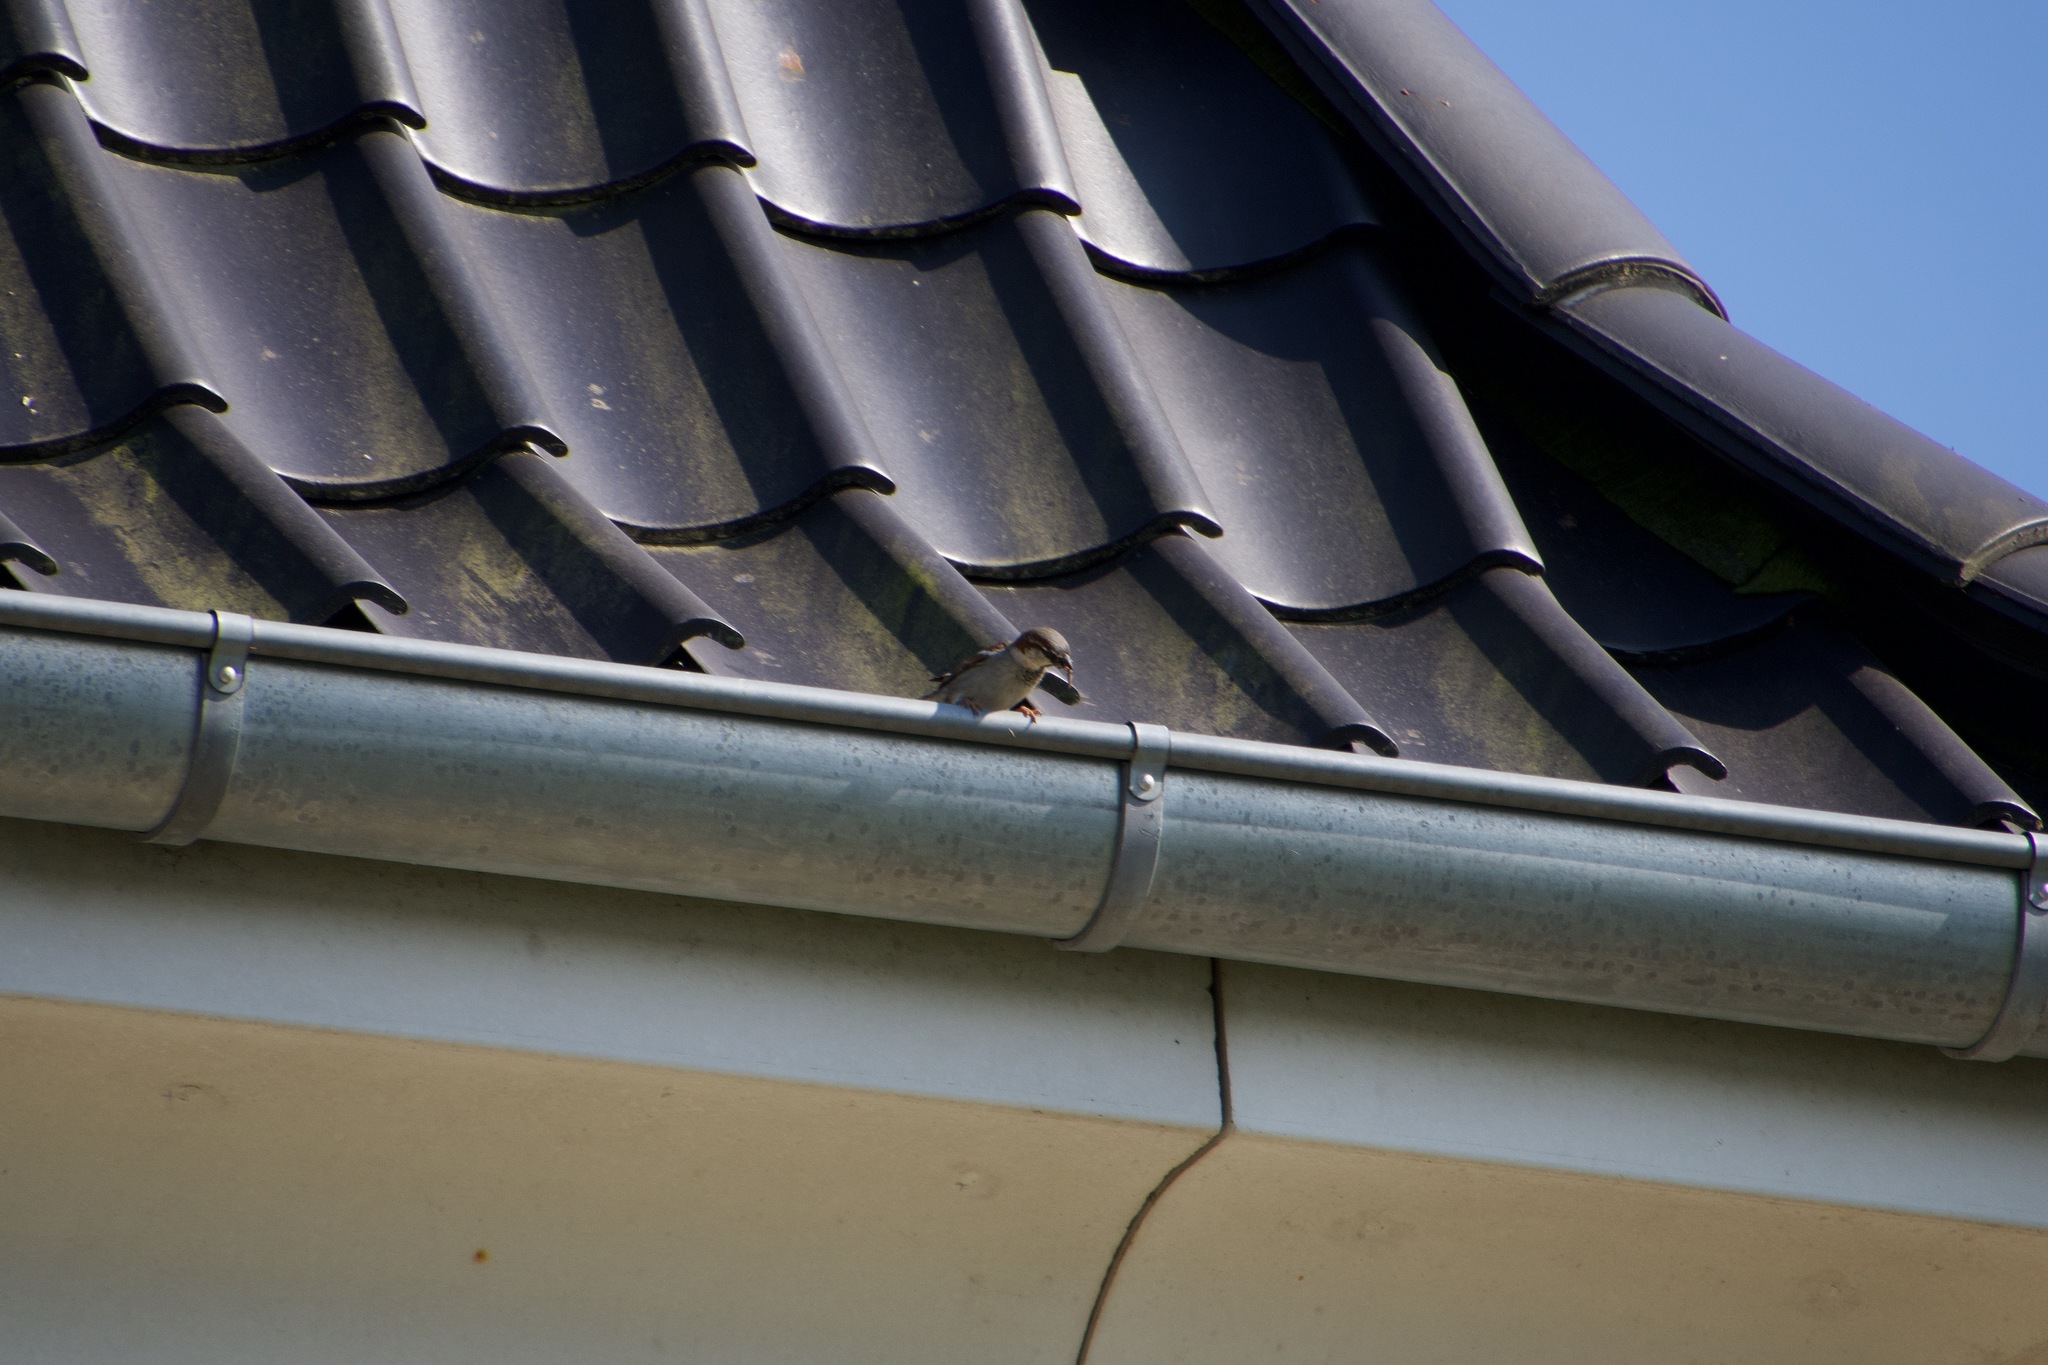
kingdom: Animalia
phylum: Chordata
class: Aves
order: Passeriformes
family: Passeridae
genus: Passer
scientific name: Passer domesticus
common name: House sparrow
